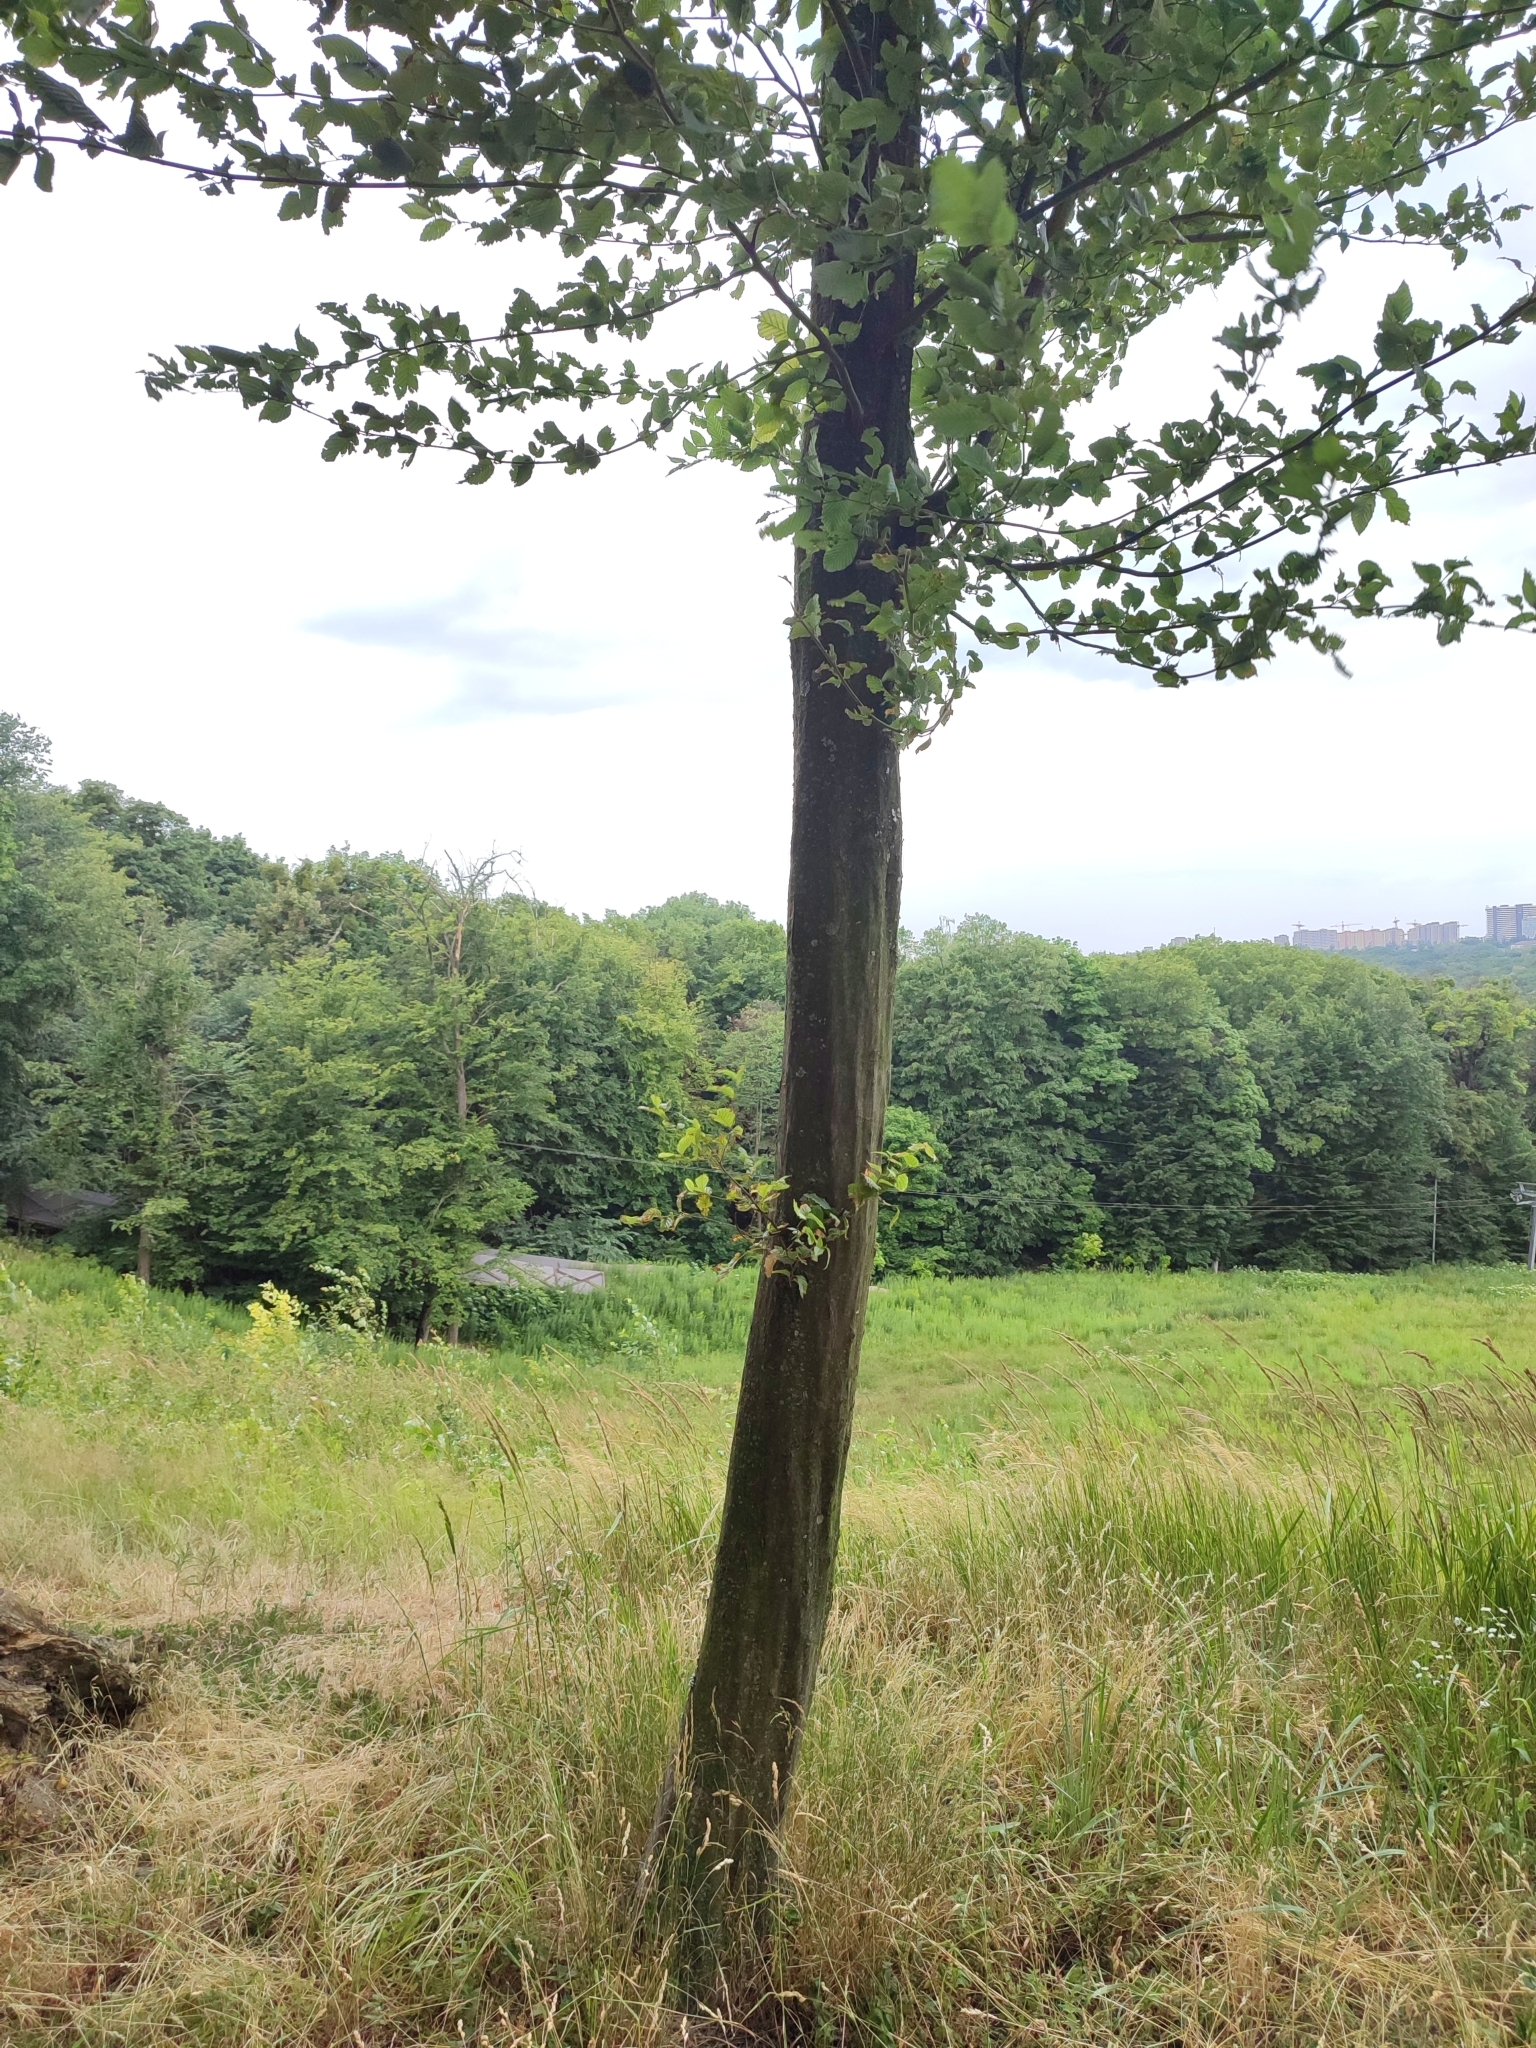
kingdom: Plantae
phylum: Tracheophyta
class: Magnoliopsida
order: Fagales
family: Betulaceae
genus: Carpinus
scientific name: Carpinus betulus
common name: Hornbeam
